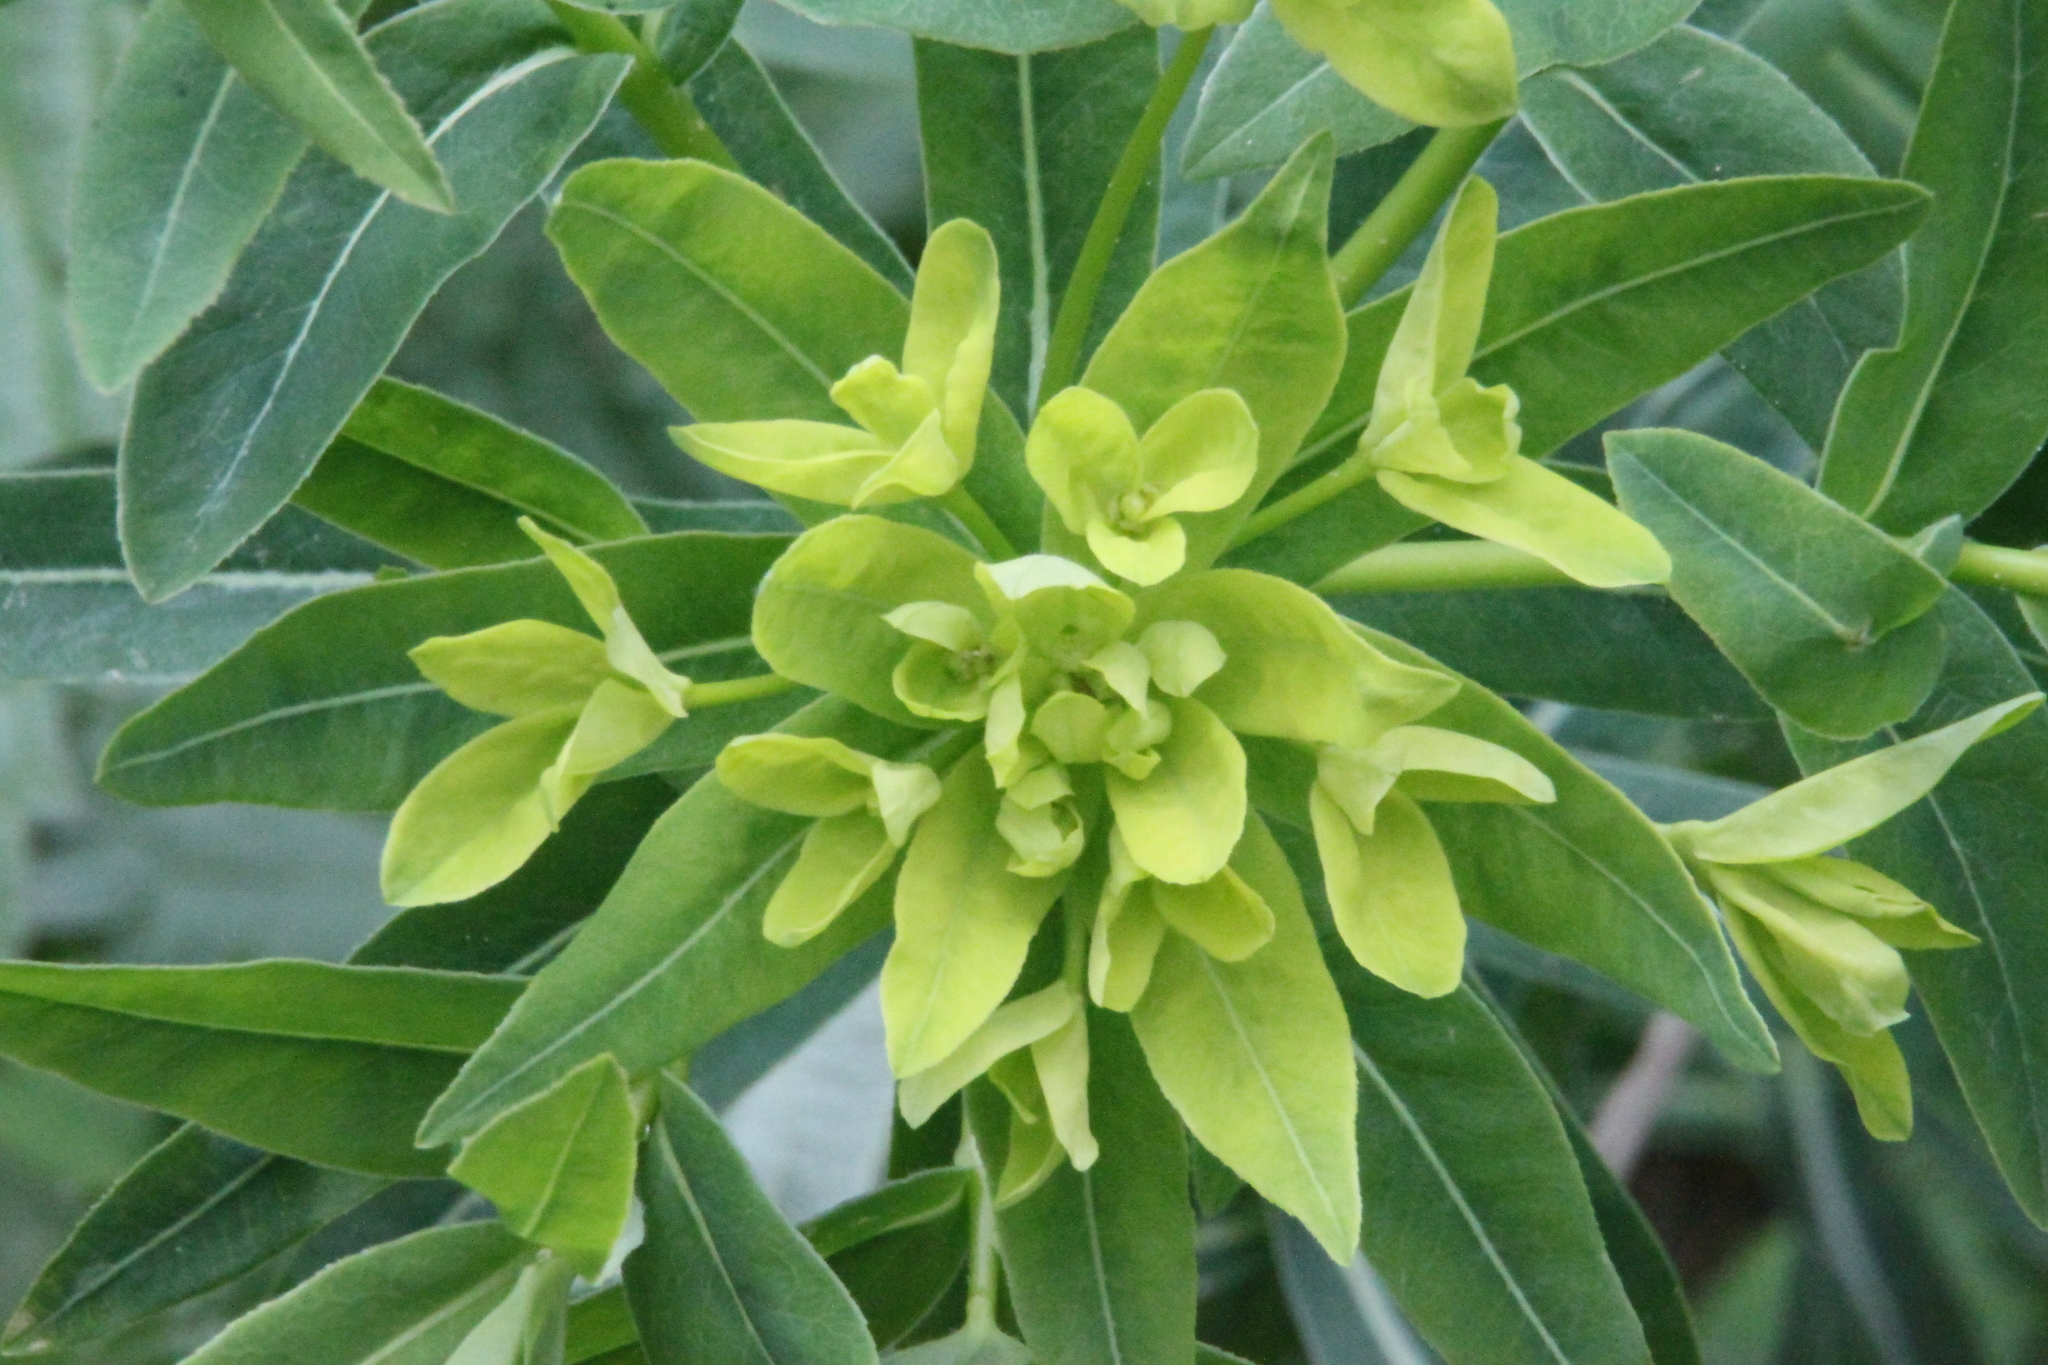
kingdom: Plantae
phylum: Tracheophyta
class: Magnoliopsida
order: Malpighiales
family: Euphorbiaceae
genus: Euphorbia
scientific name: Euphorbia semivillosa
